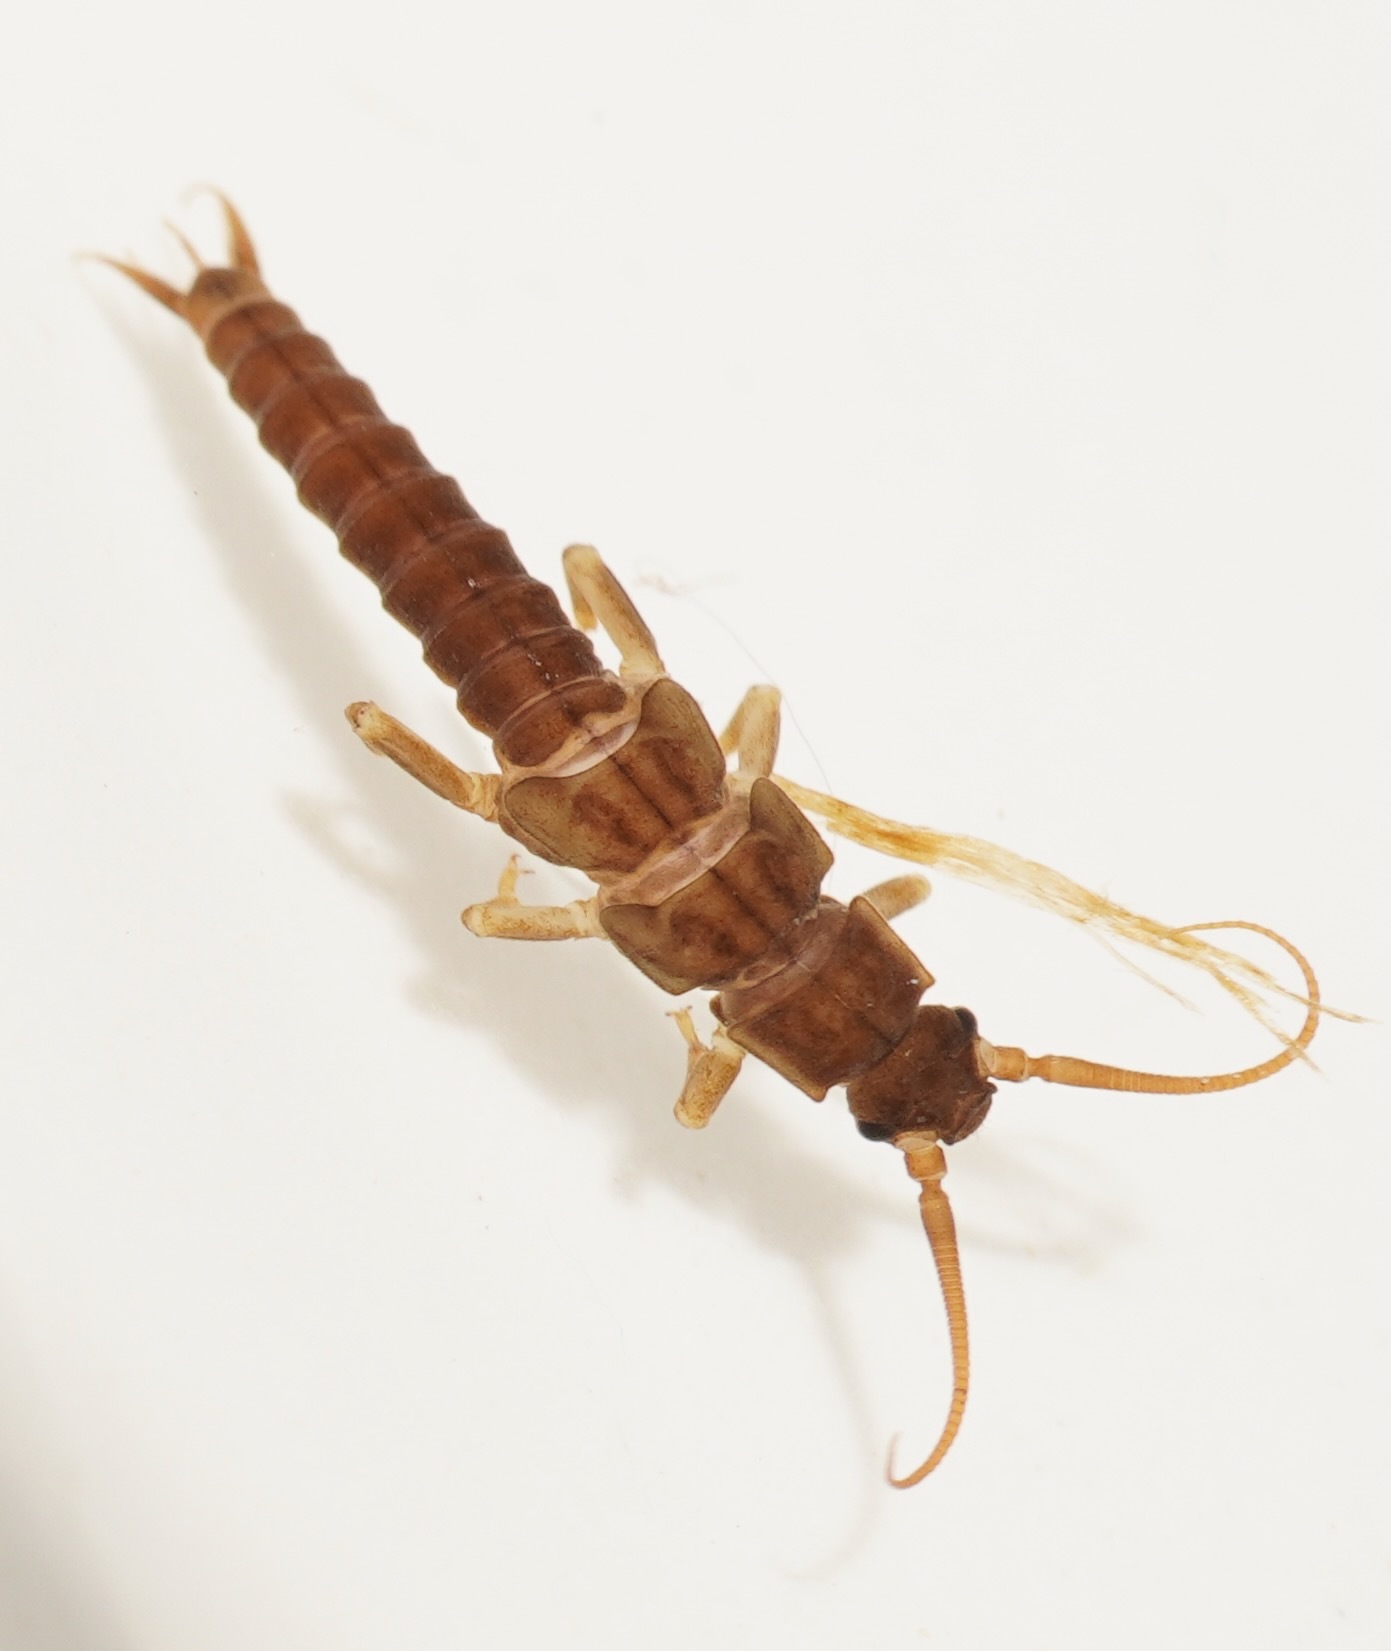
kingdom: Animalia
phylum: Arthropoda
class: Insecta
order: Plecoptera
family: Austroperlidae
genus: Austroperla
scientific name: Austroperla cyrene
